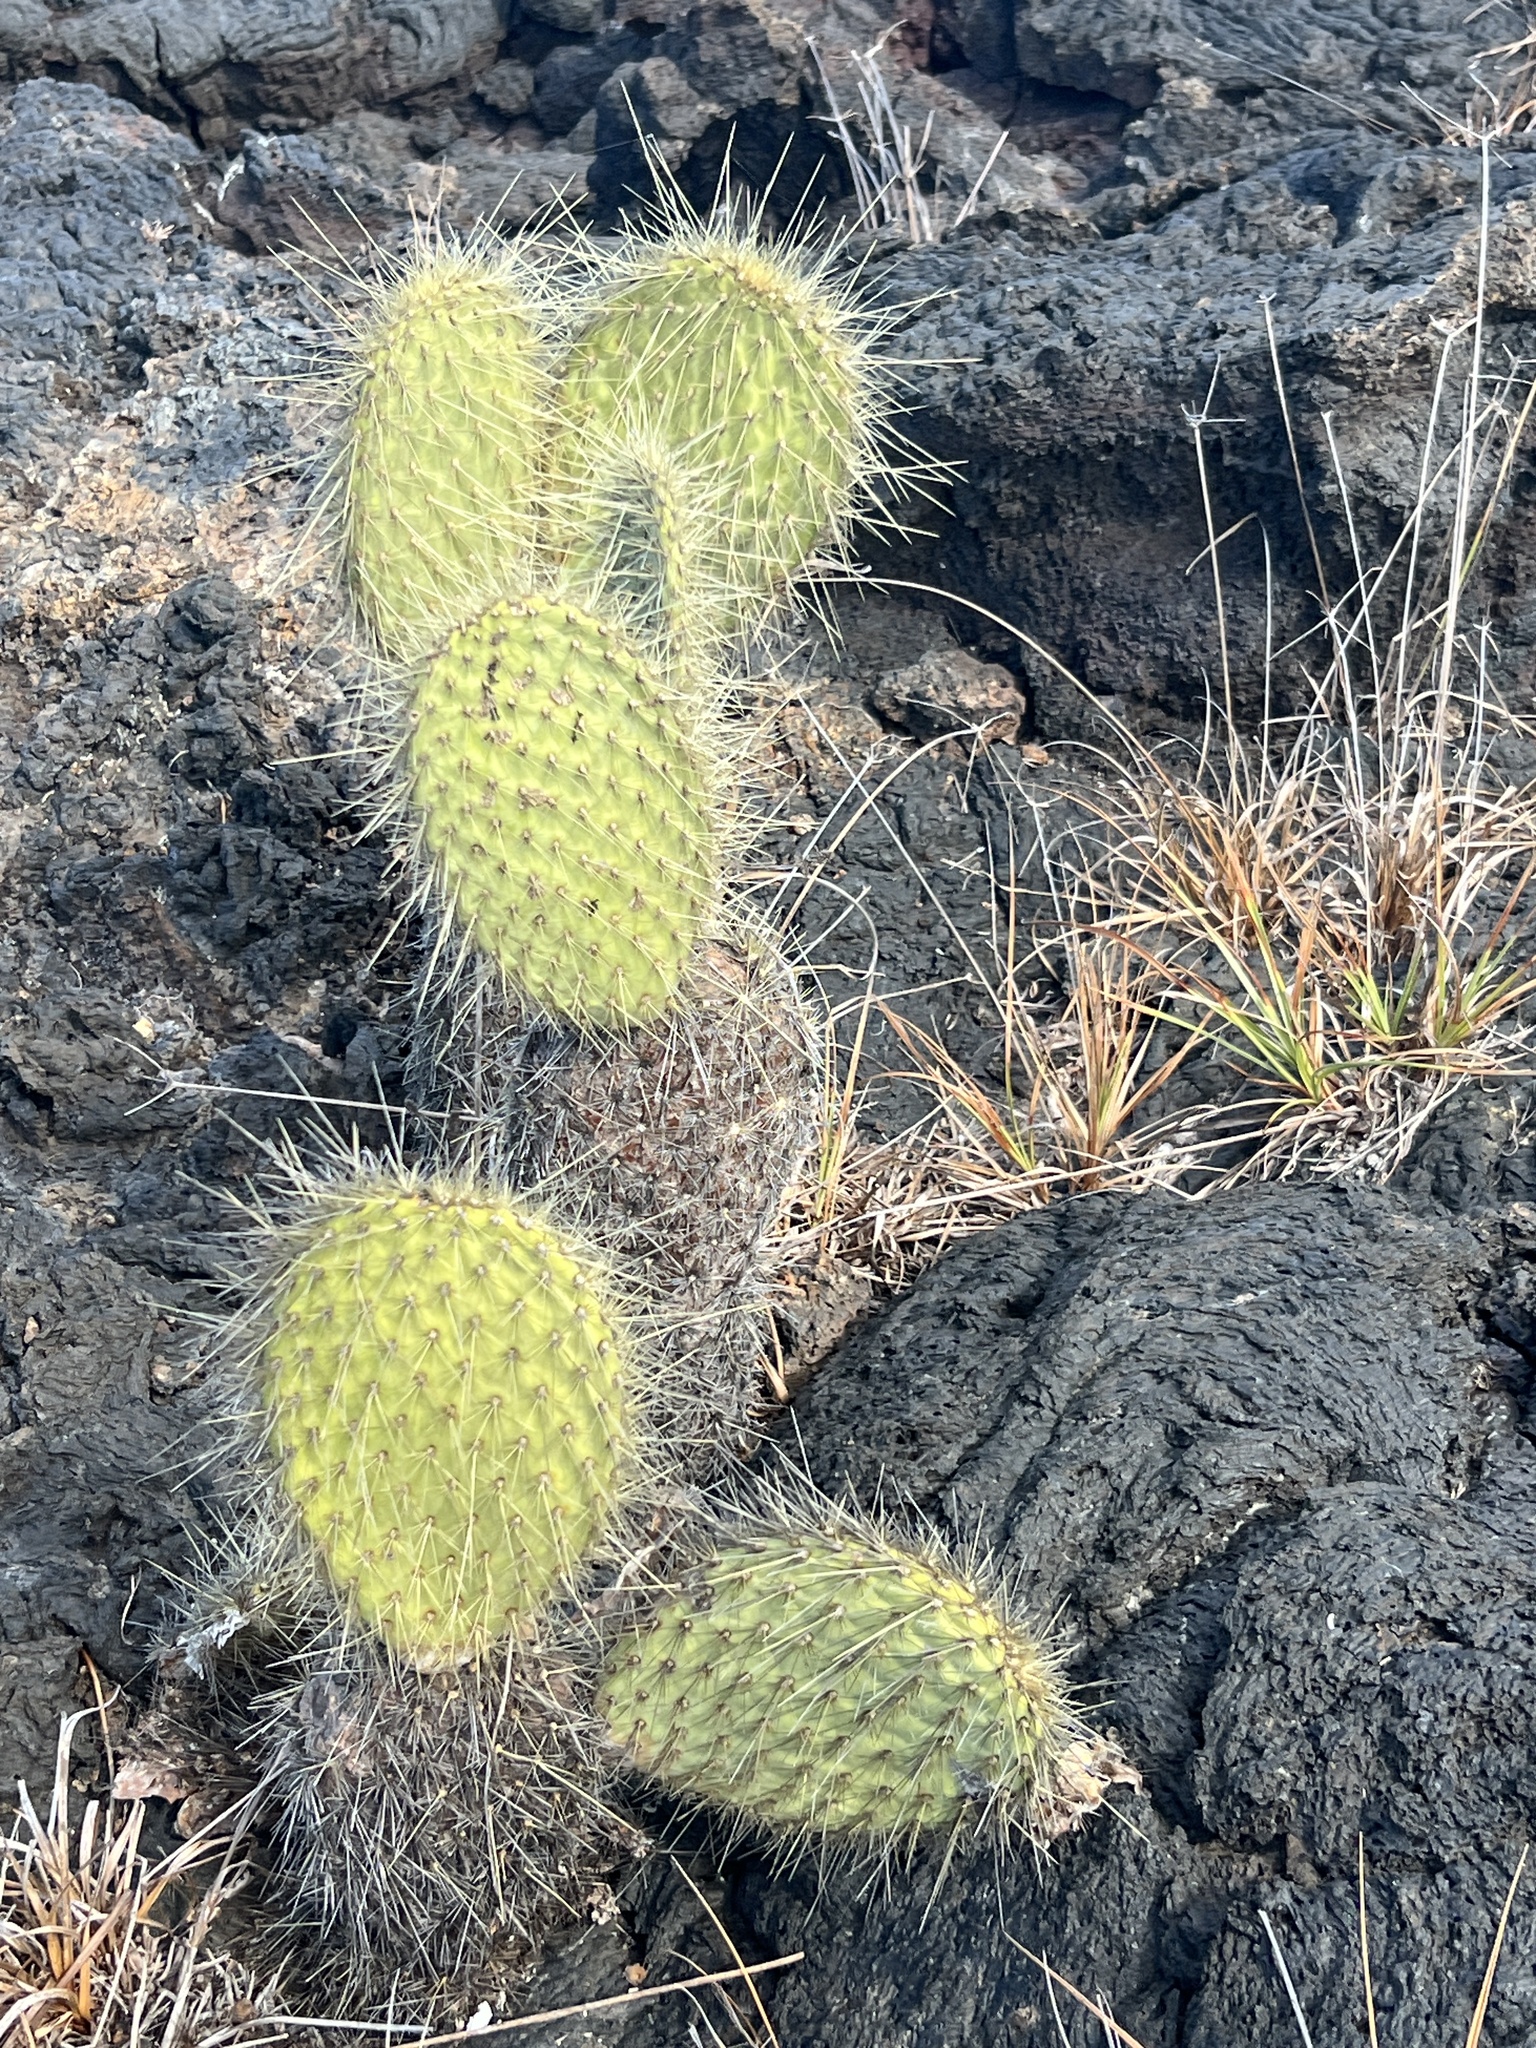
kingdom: Plantae
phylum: Tracheophyta
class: Magnoliopsida
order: Caryophyllales
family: Cactaceae
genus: Opuntia
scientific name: Opuntia galapageia
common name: Galápagos prickly pear
